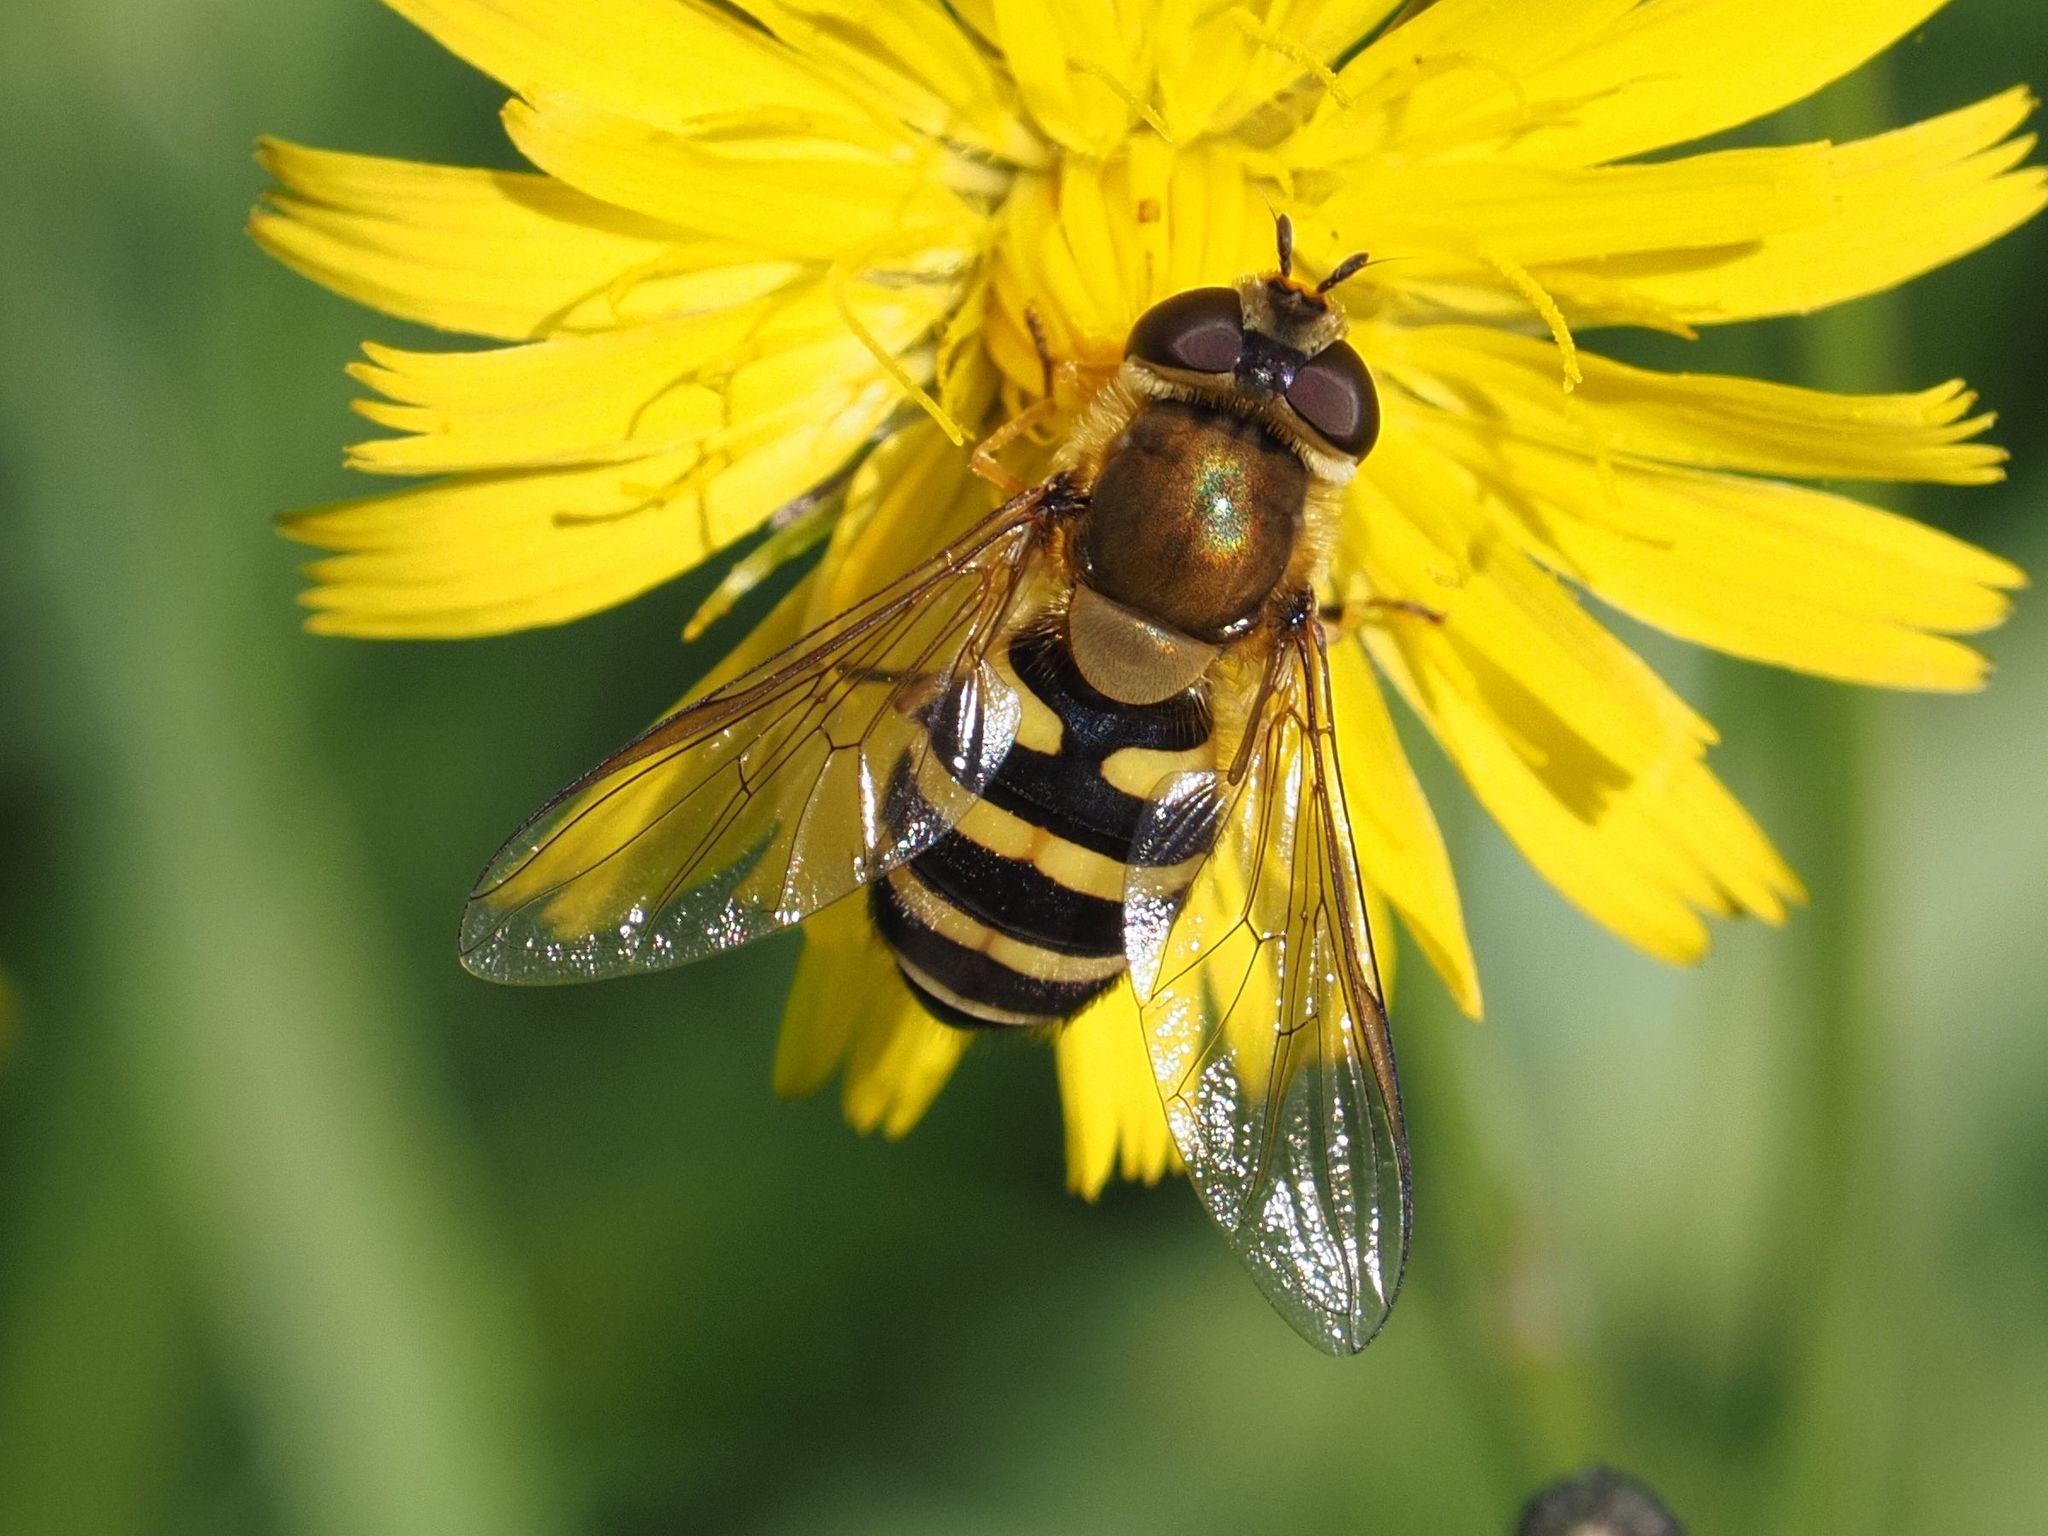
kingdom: Animalia
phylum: Arthropoda
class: Insecta
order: Diptera
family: Syrphidae
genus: Syrphus
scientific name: Syrphus torvus
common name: Hairy-eyed flower fly
